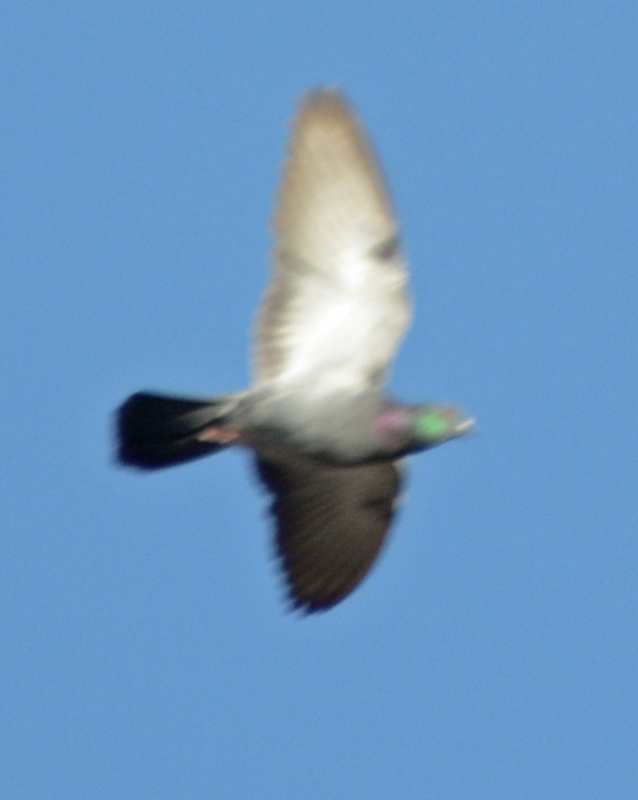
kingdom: Animalia
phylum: Chordata
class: Aves
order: Columbiformes
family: Columbidae
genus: Columba
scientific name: Columba livia
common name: Rock pigeon
